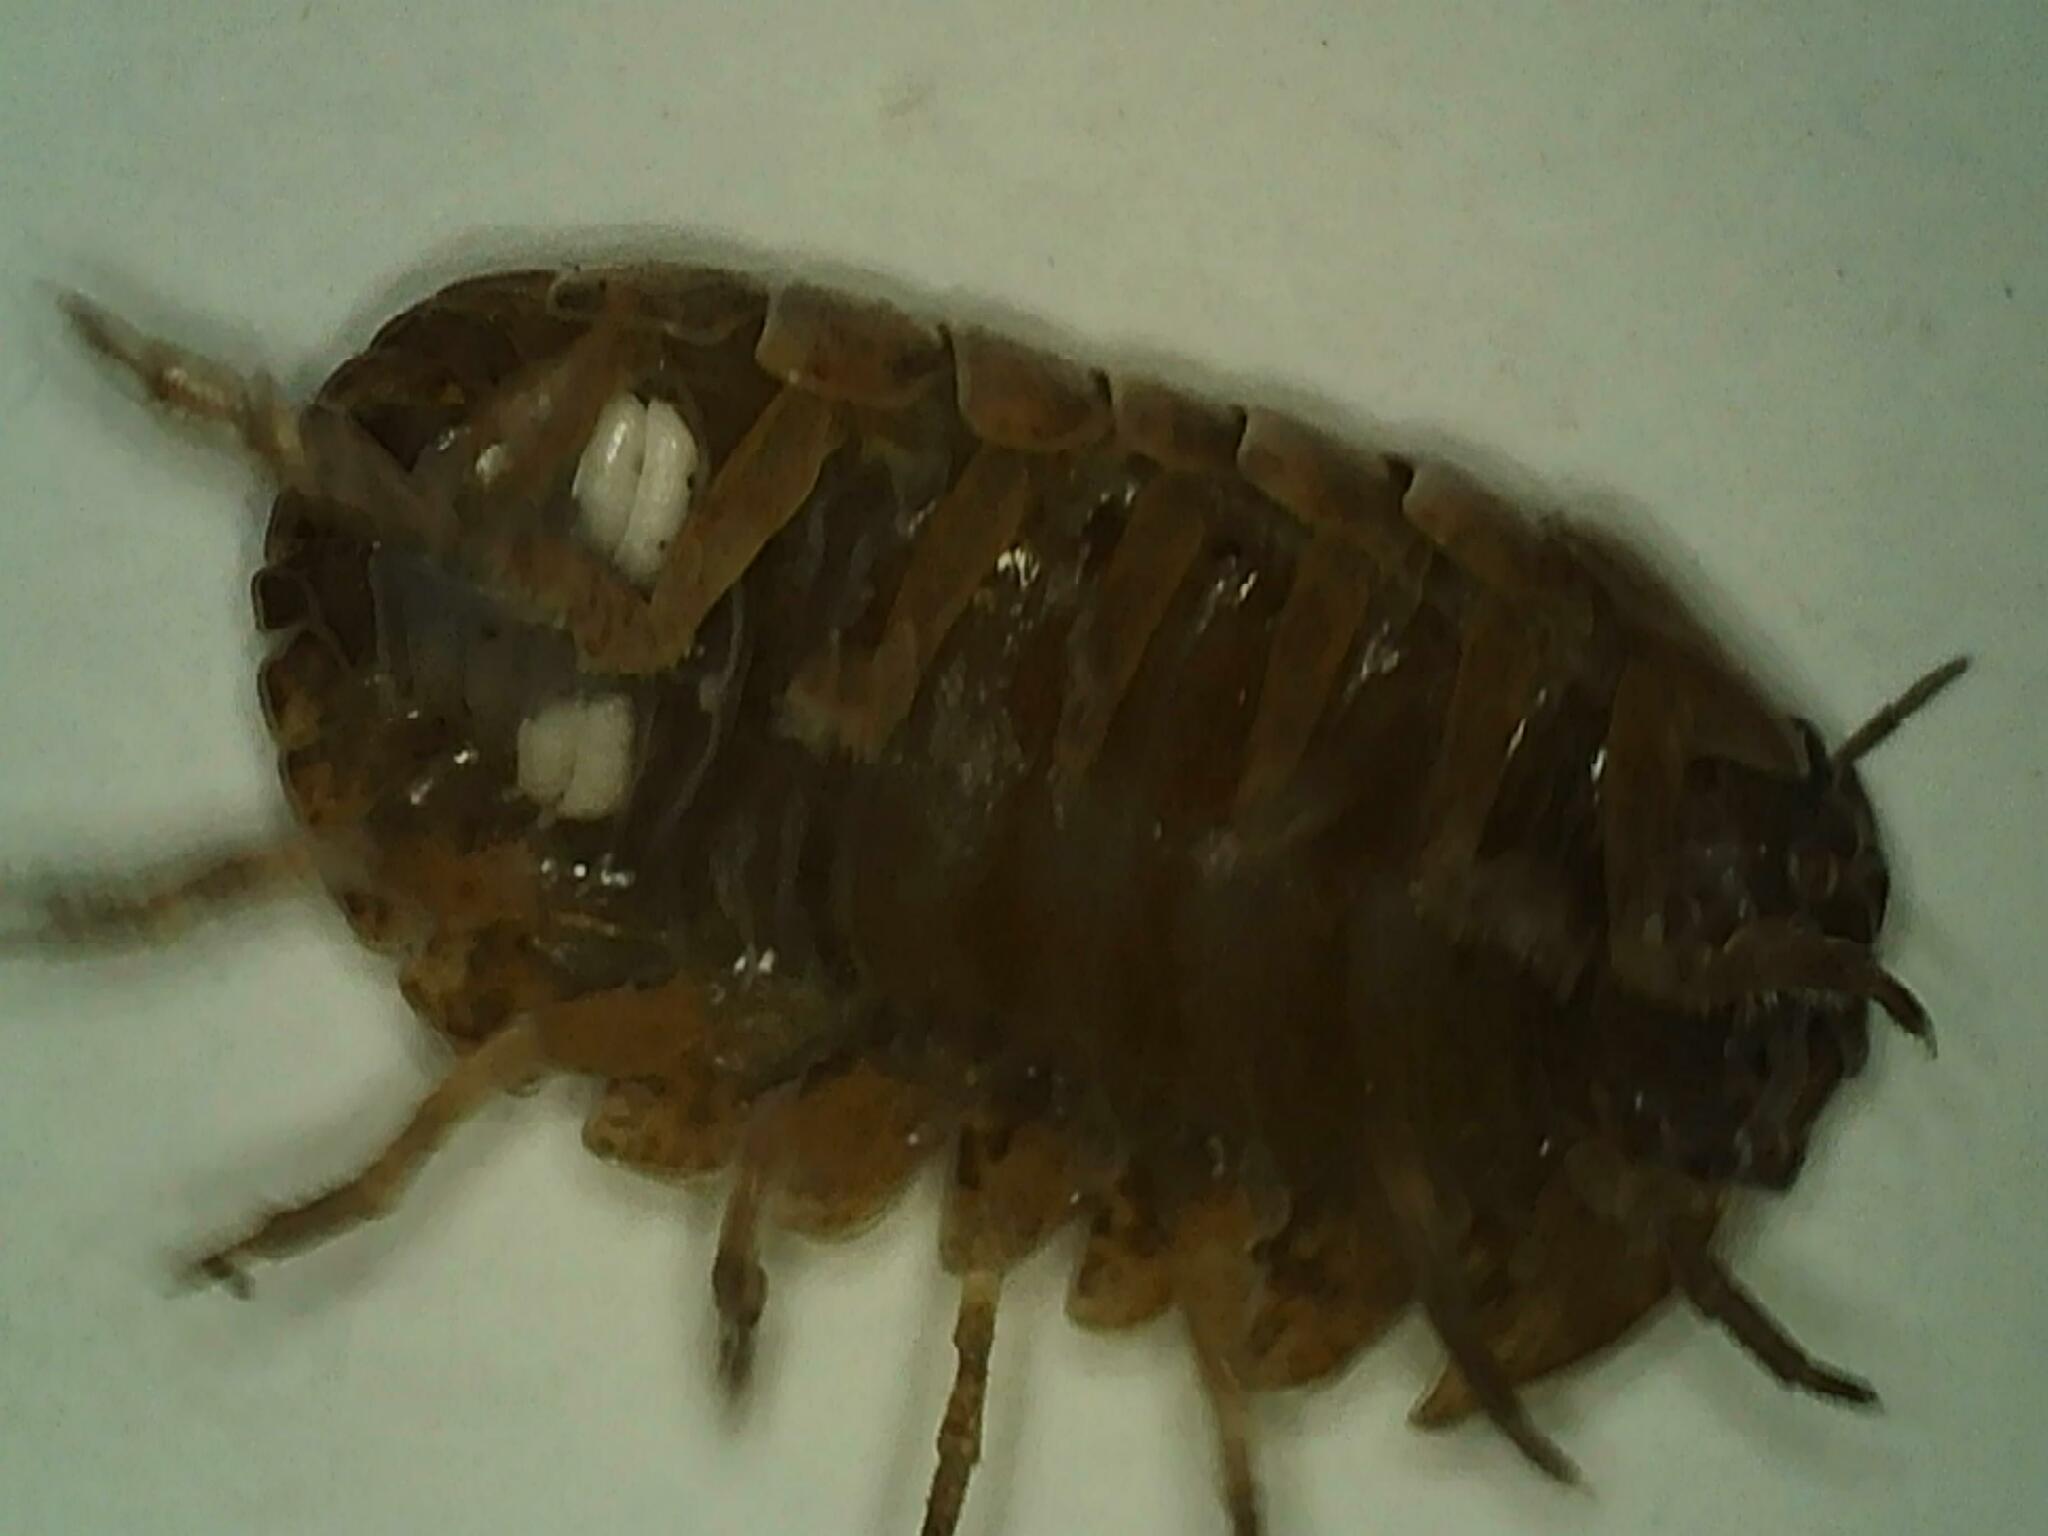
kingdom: Animalia
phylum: Arthropoda
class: Malacostraca
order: Isopoda
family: Armadillidiidae
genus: Armadillidium
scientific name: Armadillidium vulgare
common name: Common pill woodlouse
